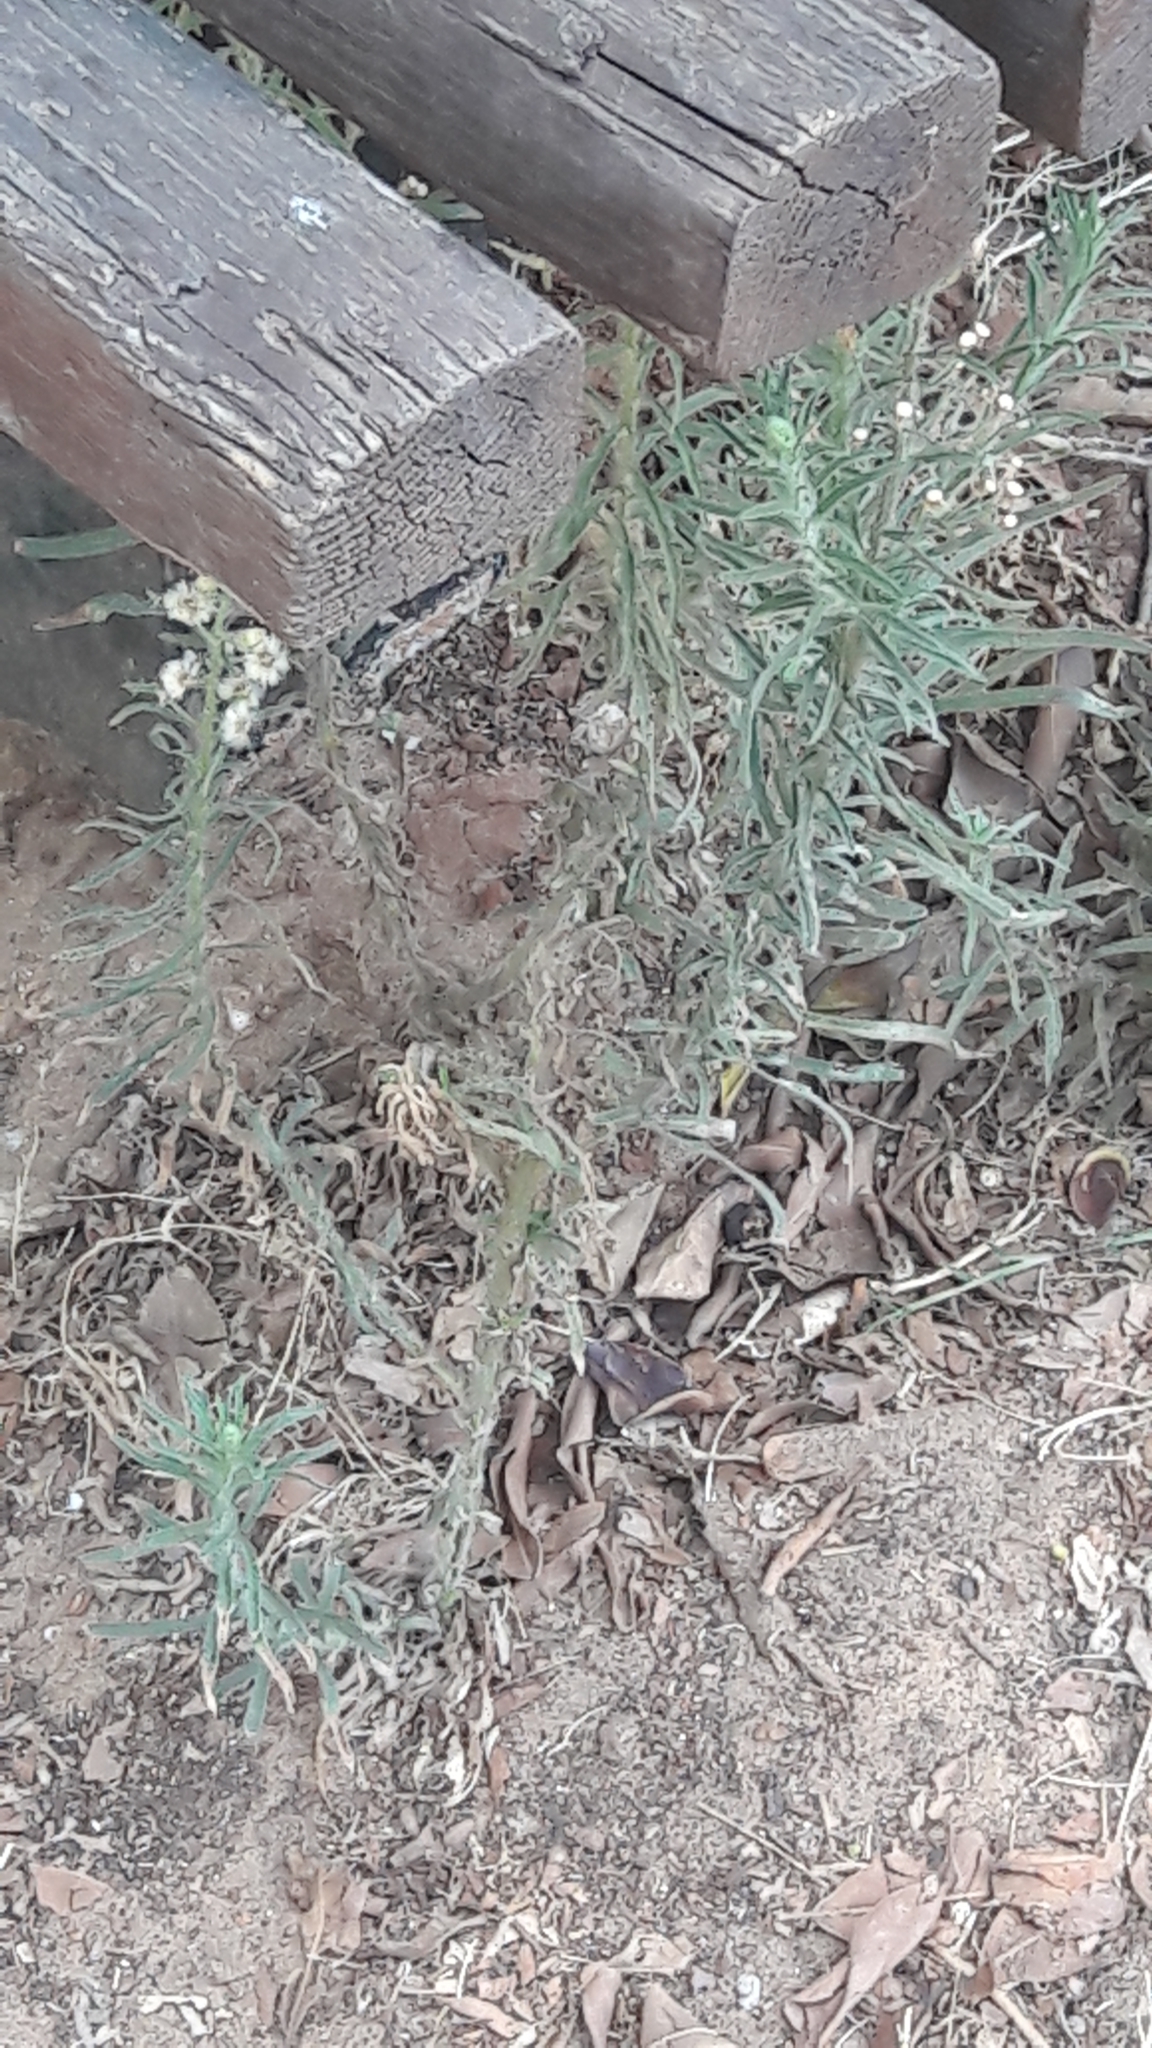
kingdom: Plantae
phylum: Tracheophyta
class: Magnoliopsida
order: Asterales
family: Asteraceae
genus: Erigeron
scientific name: Erigeron bonariensis
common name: Argentine fleabane
